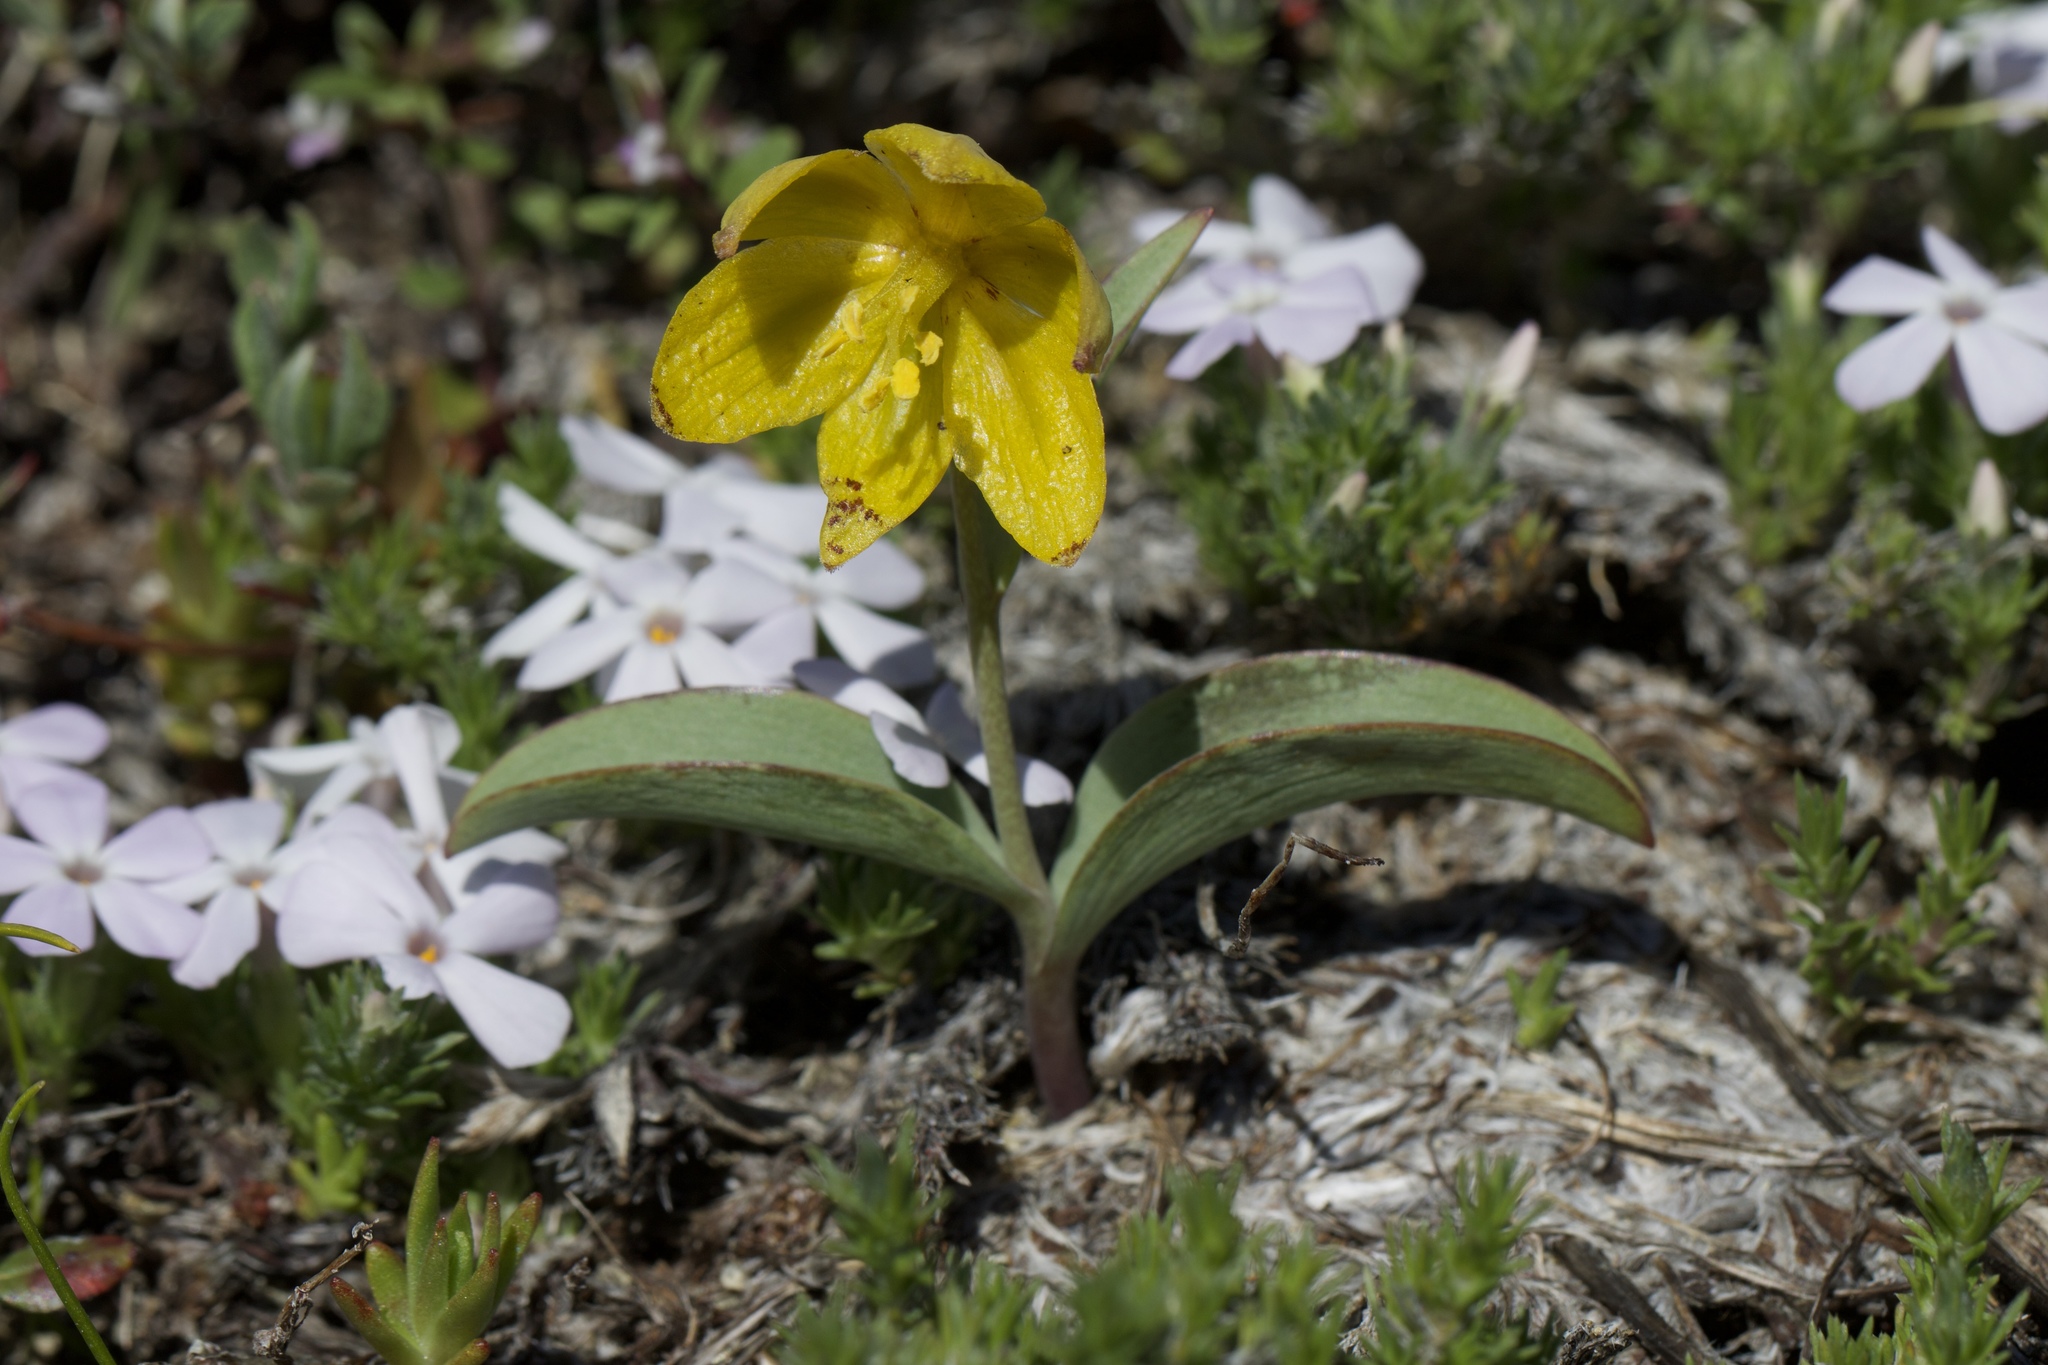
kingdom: Plantae
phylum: Tracheophyta
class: Liliopsida
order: Liliales
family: Liliaceae
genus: Fritillaria
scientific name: Fritillaria glauca
